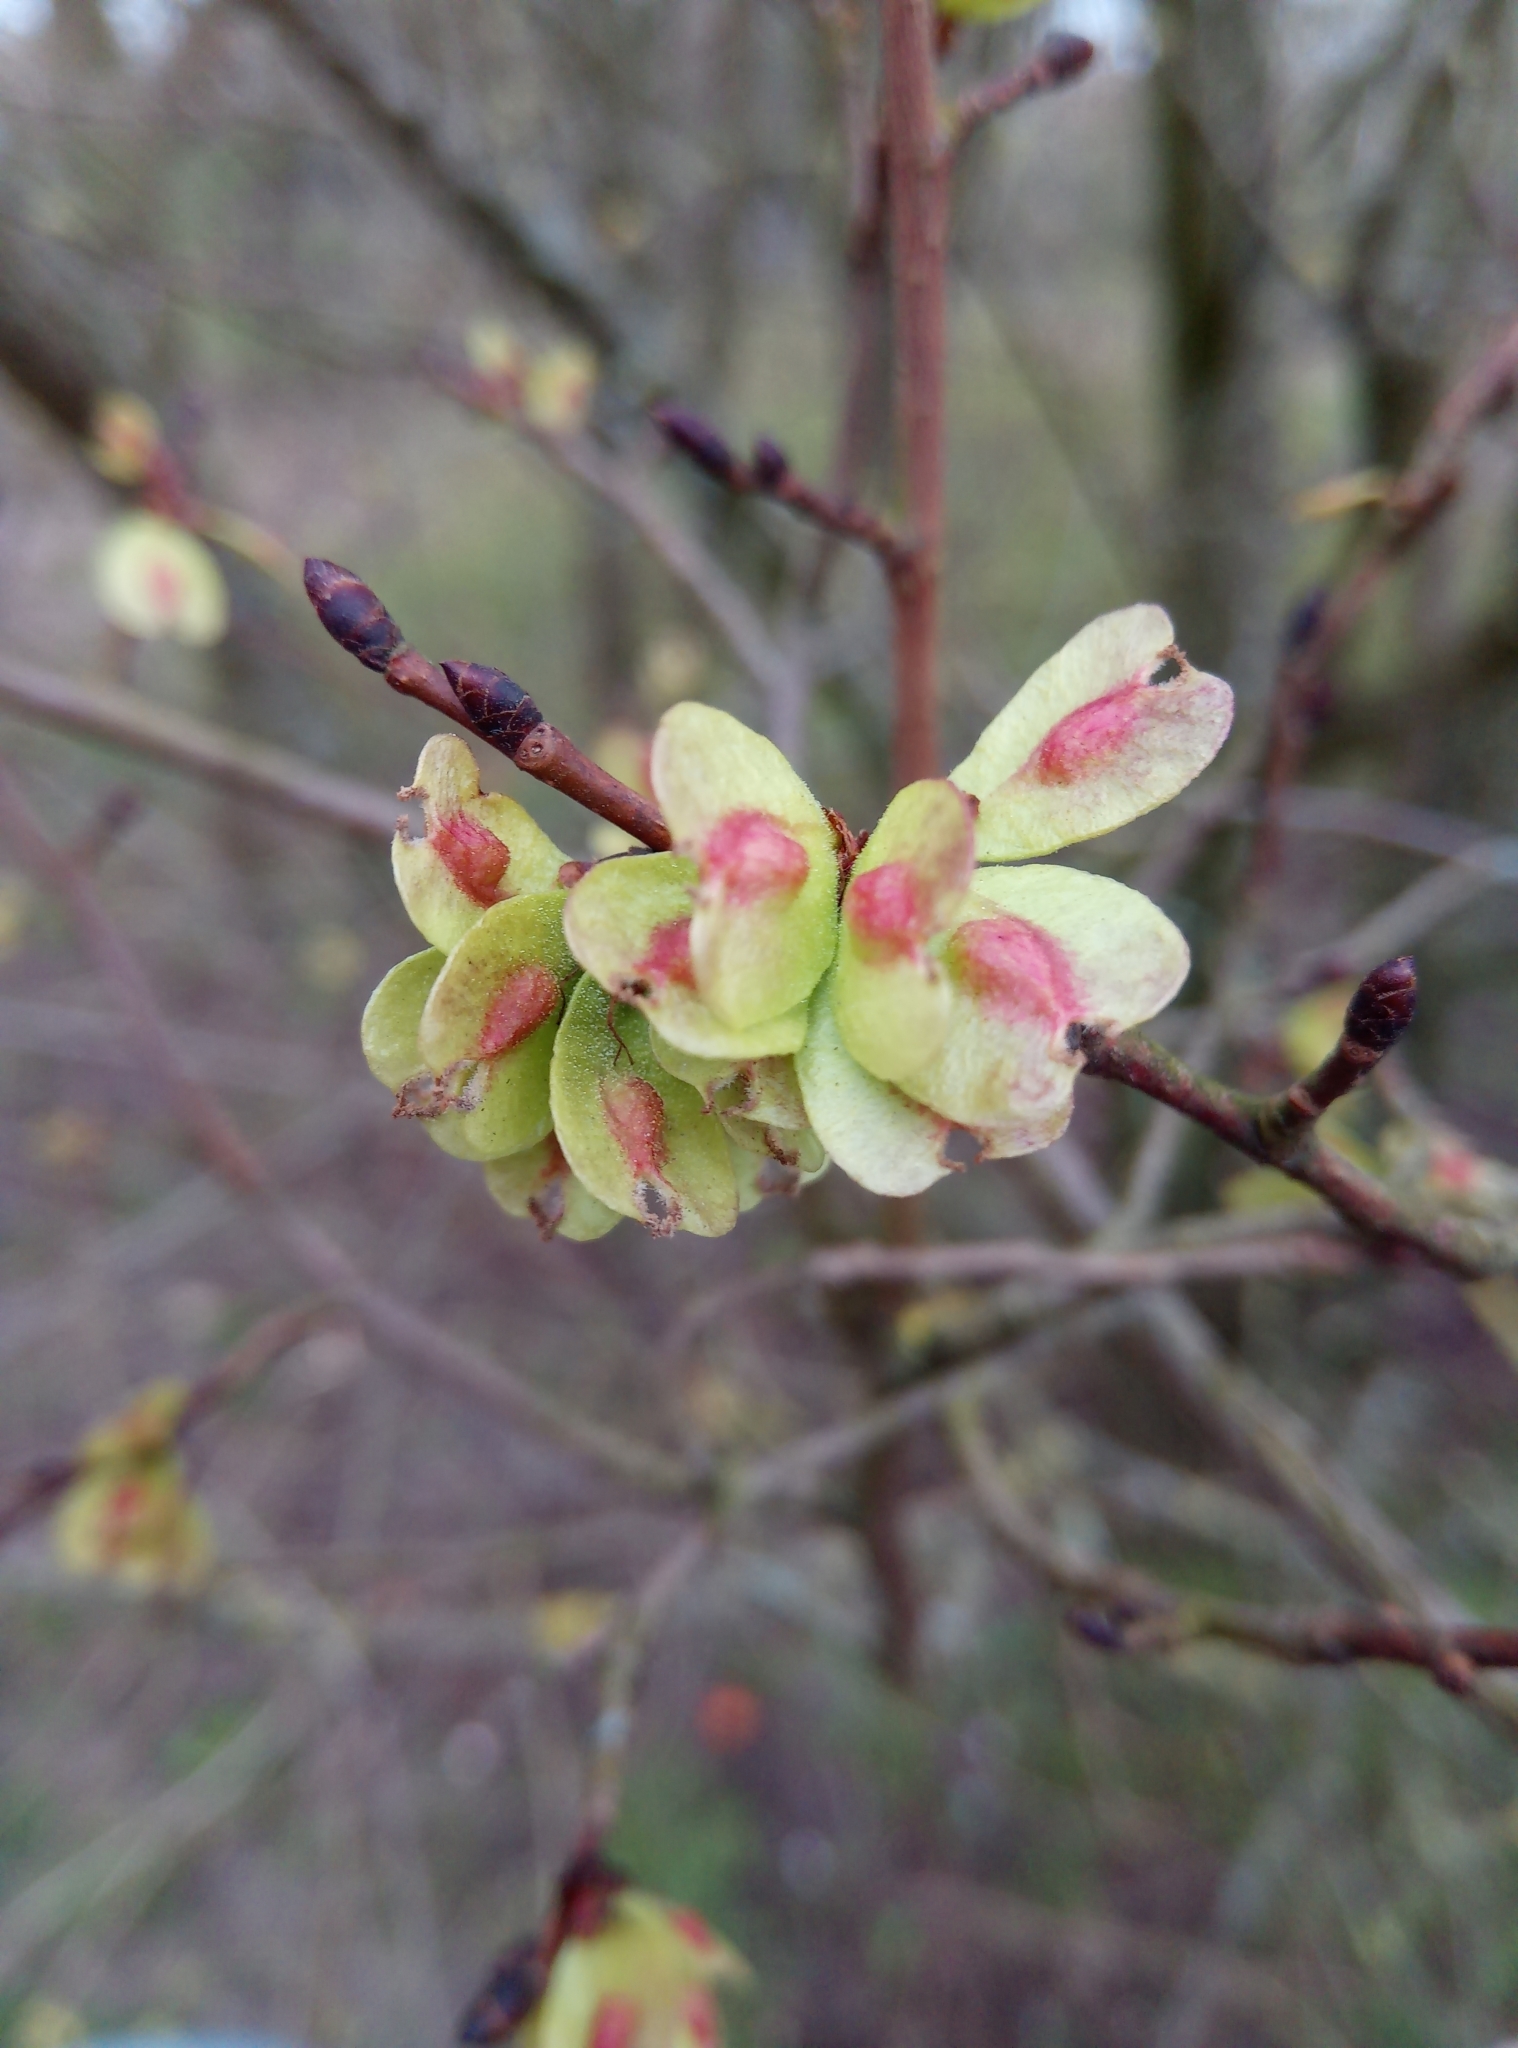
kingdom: Plantae
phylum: Tracheophyta
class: Magnoliopsida
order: Rosales
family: Ulmaceae
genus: Ulmus
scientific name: Ulmus minor
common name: Small-leaved elm
